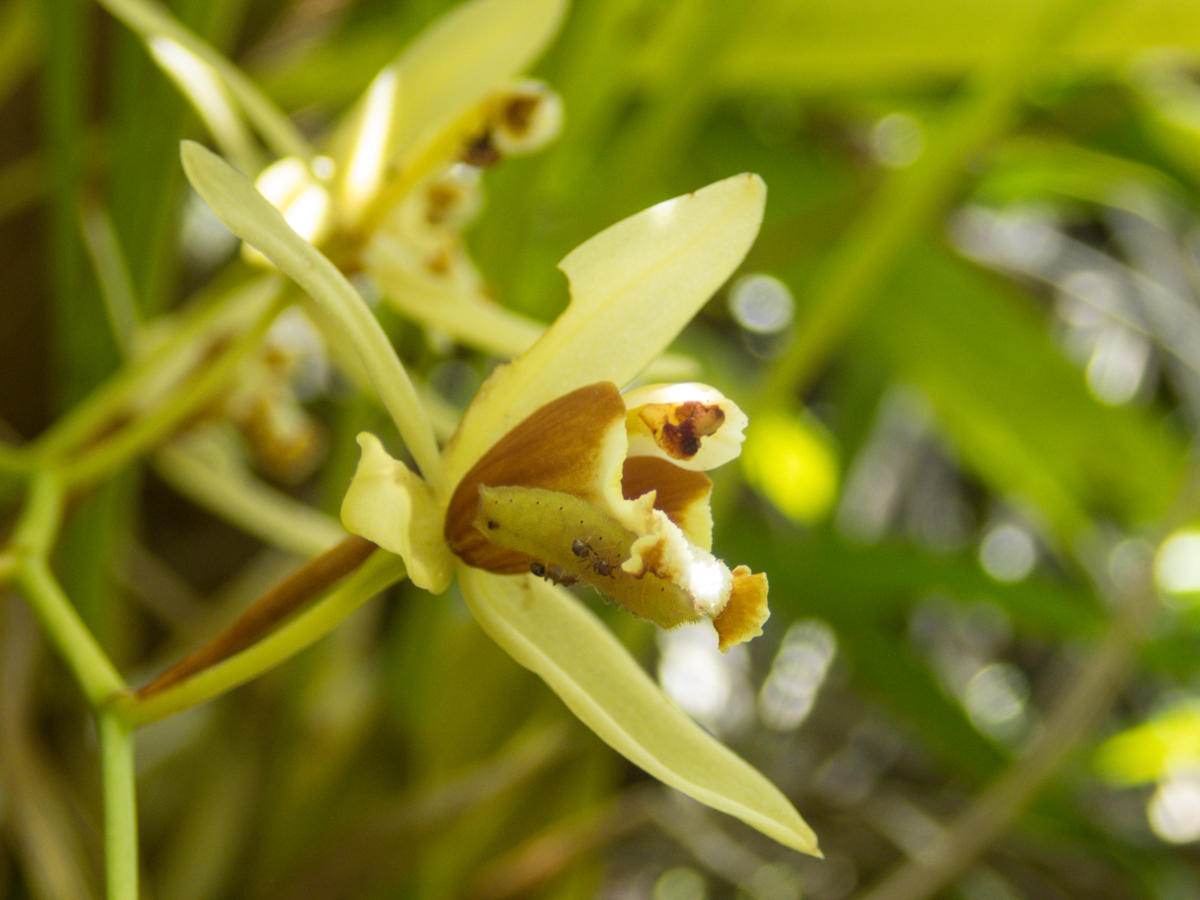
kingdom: Plantae
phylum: Tracheophyta
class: Liliopsida
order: Asparagales
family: Orchidaceae
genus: Coelogyne
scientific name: Coelogyne trinervis
